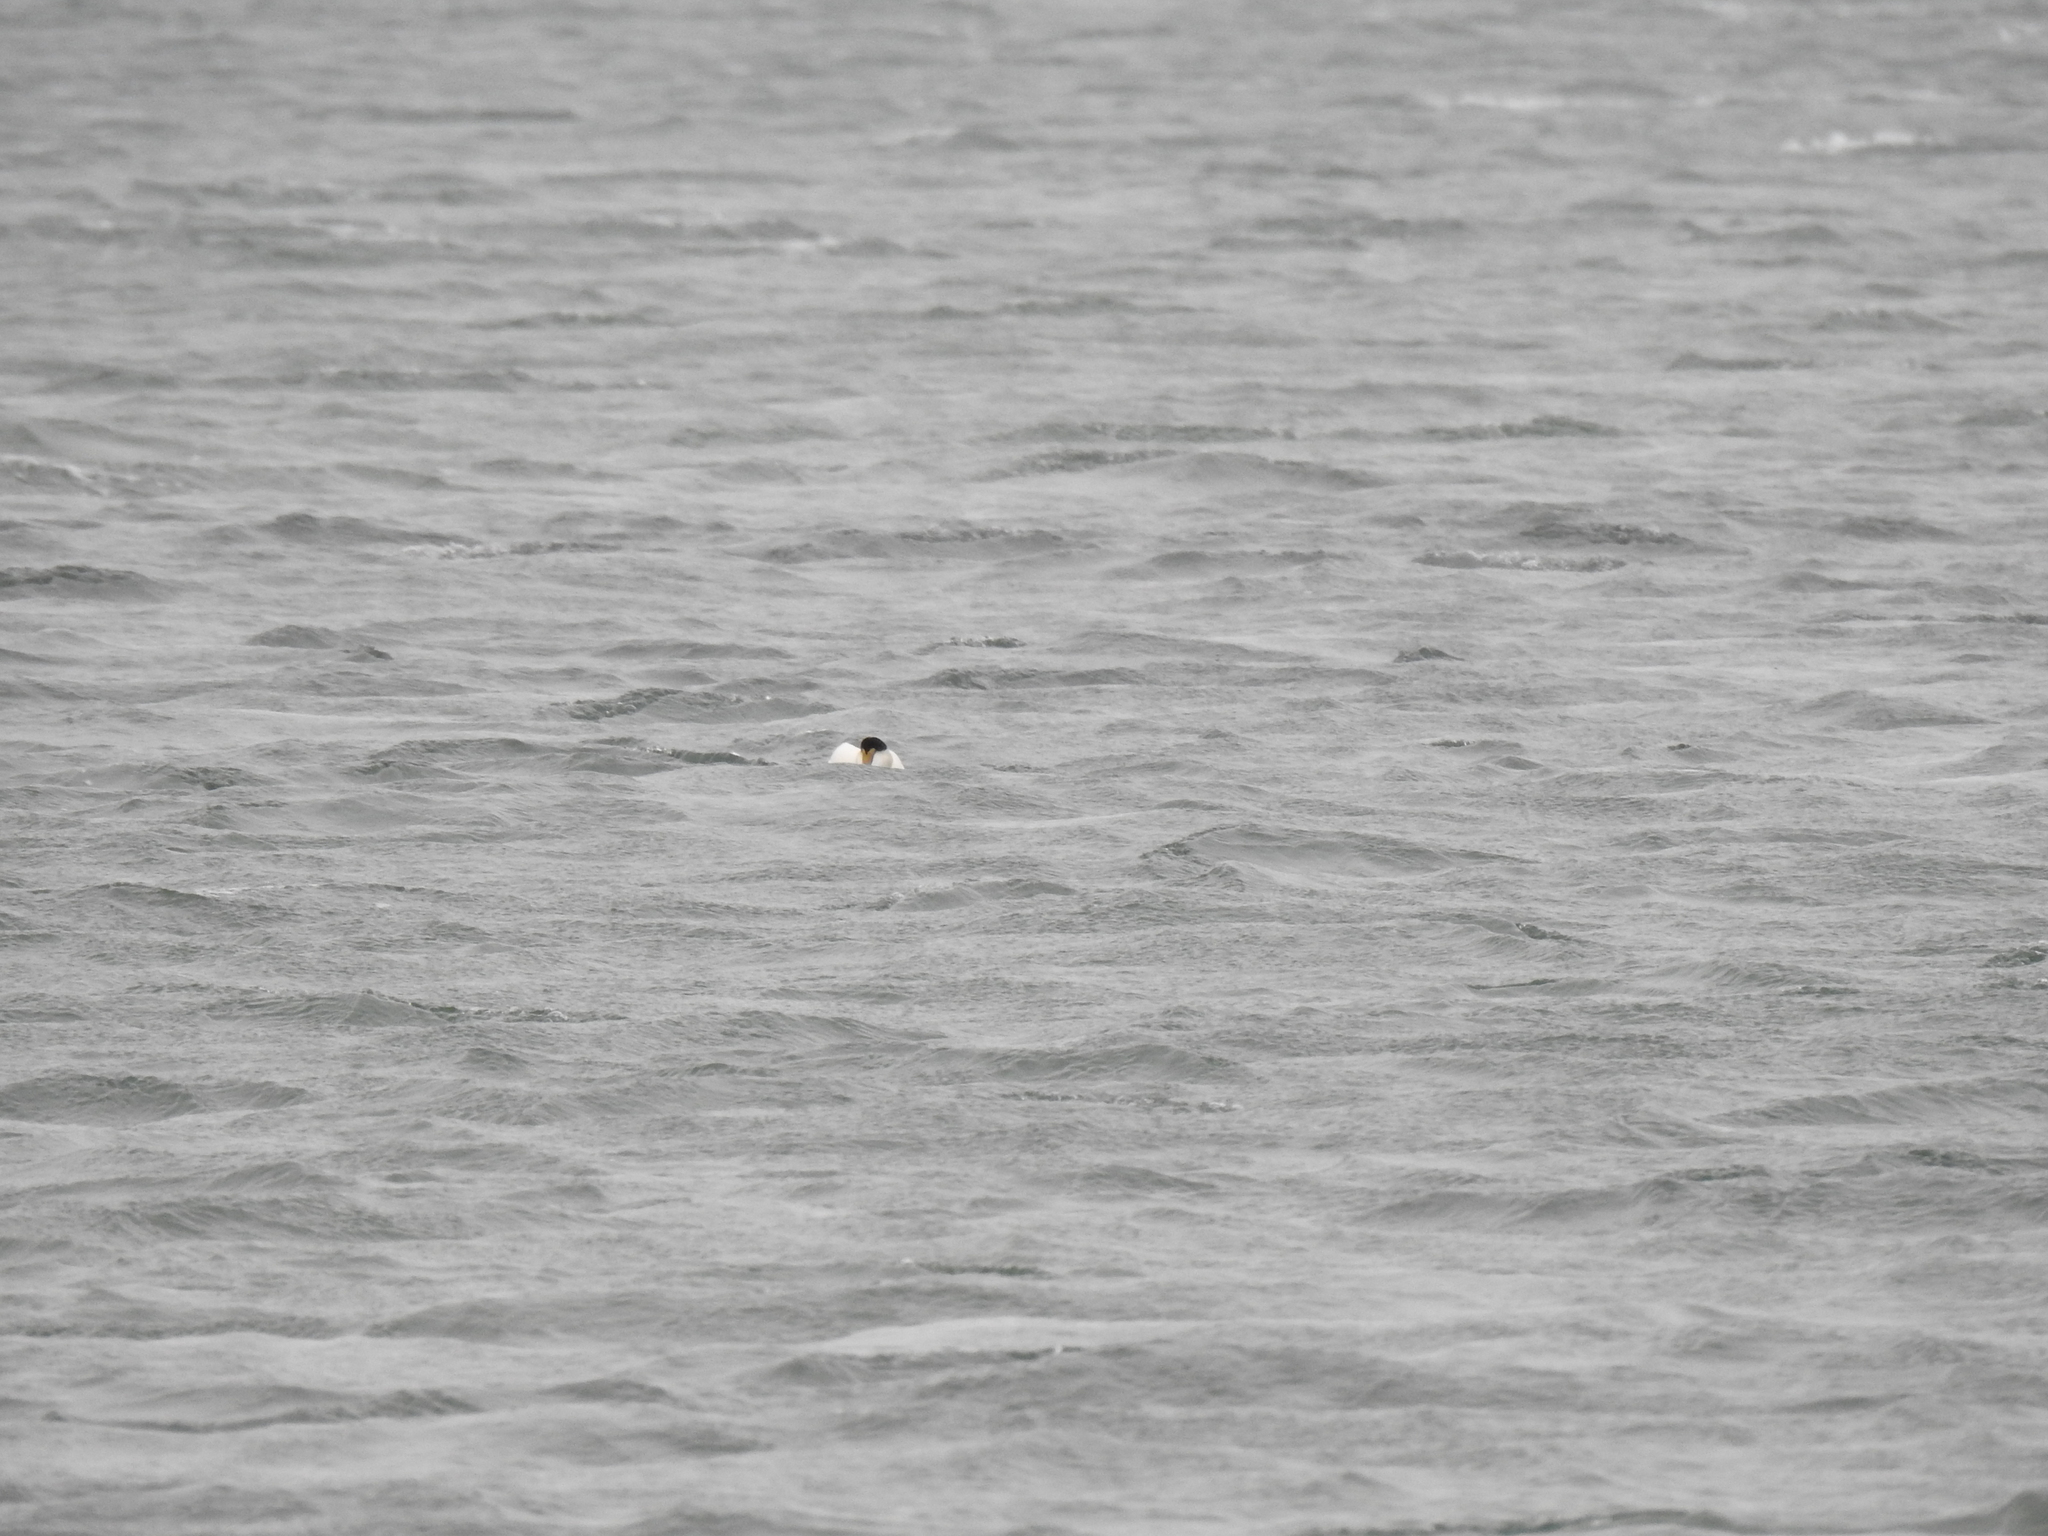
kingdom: Animalia
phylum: Chordata
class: Aves
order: Anseriformes
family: Anatidae
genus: Somateria
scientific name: Somateria mollissima
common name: Common eider
